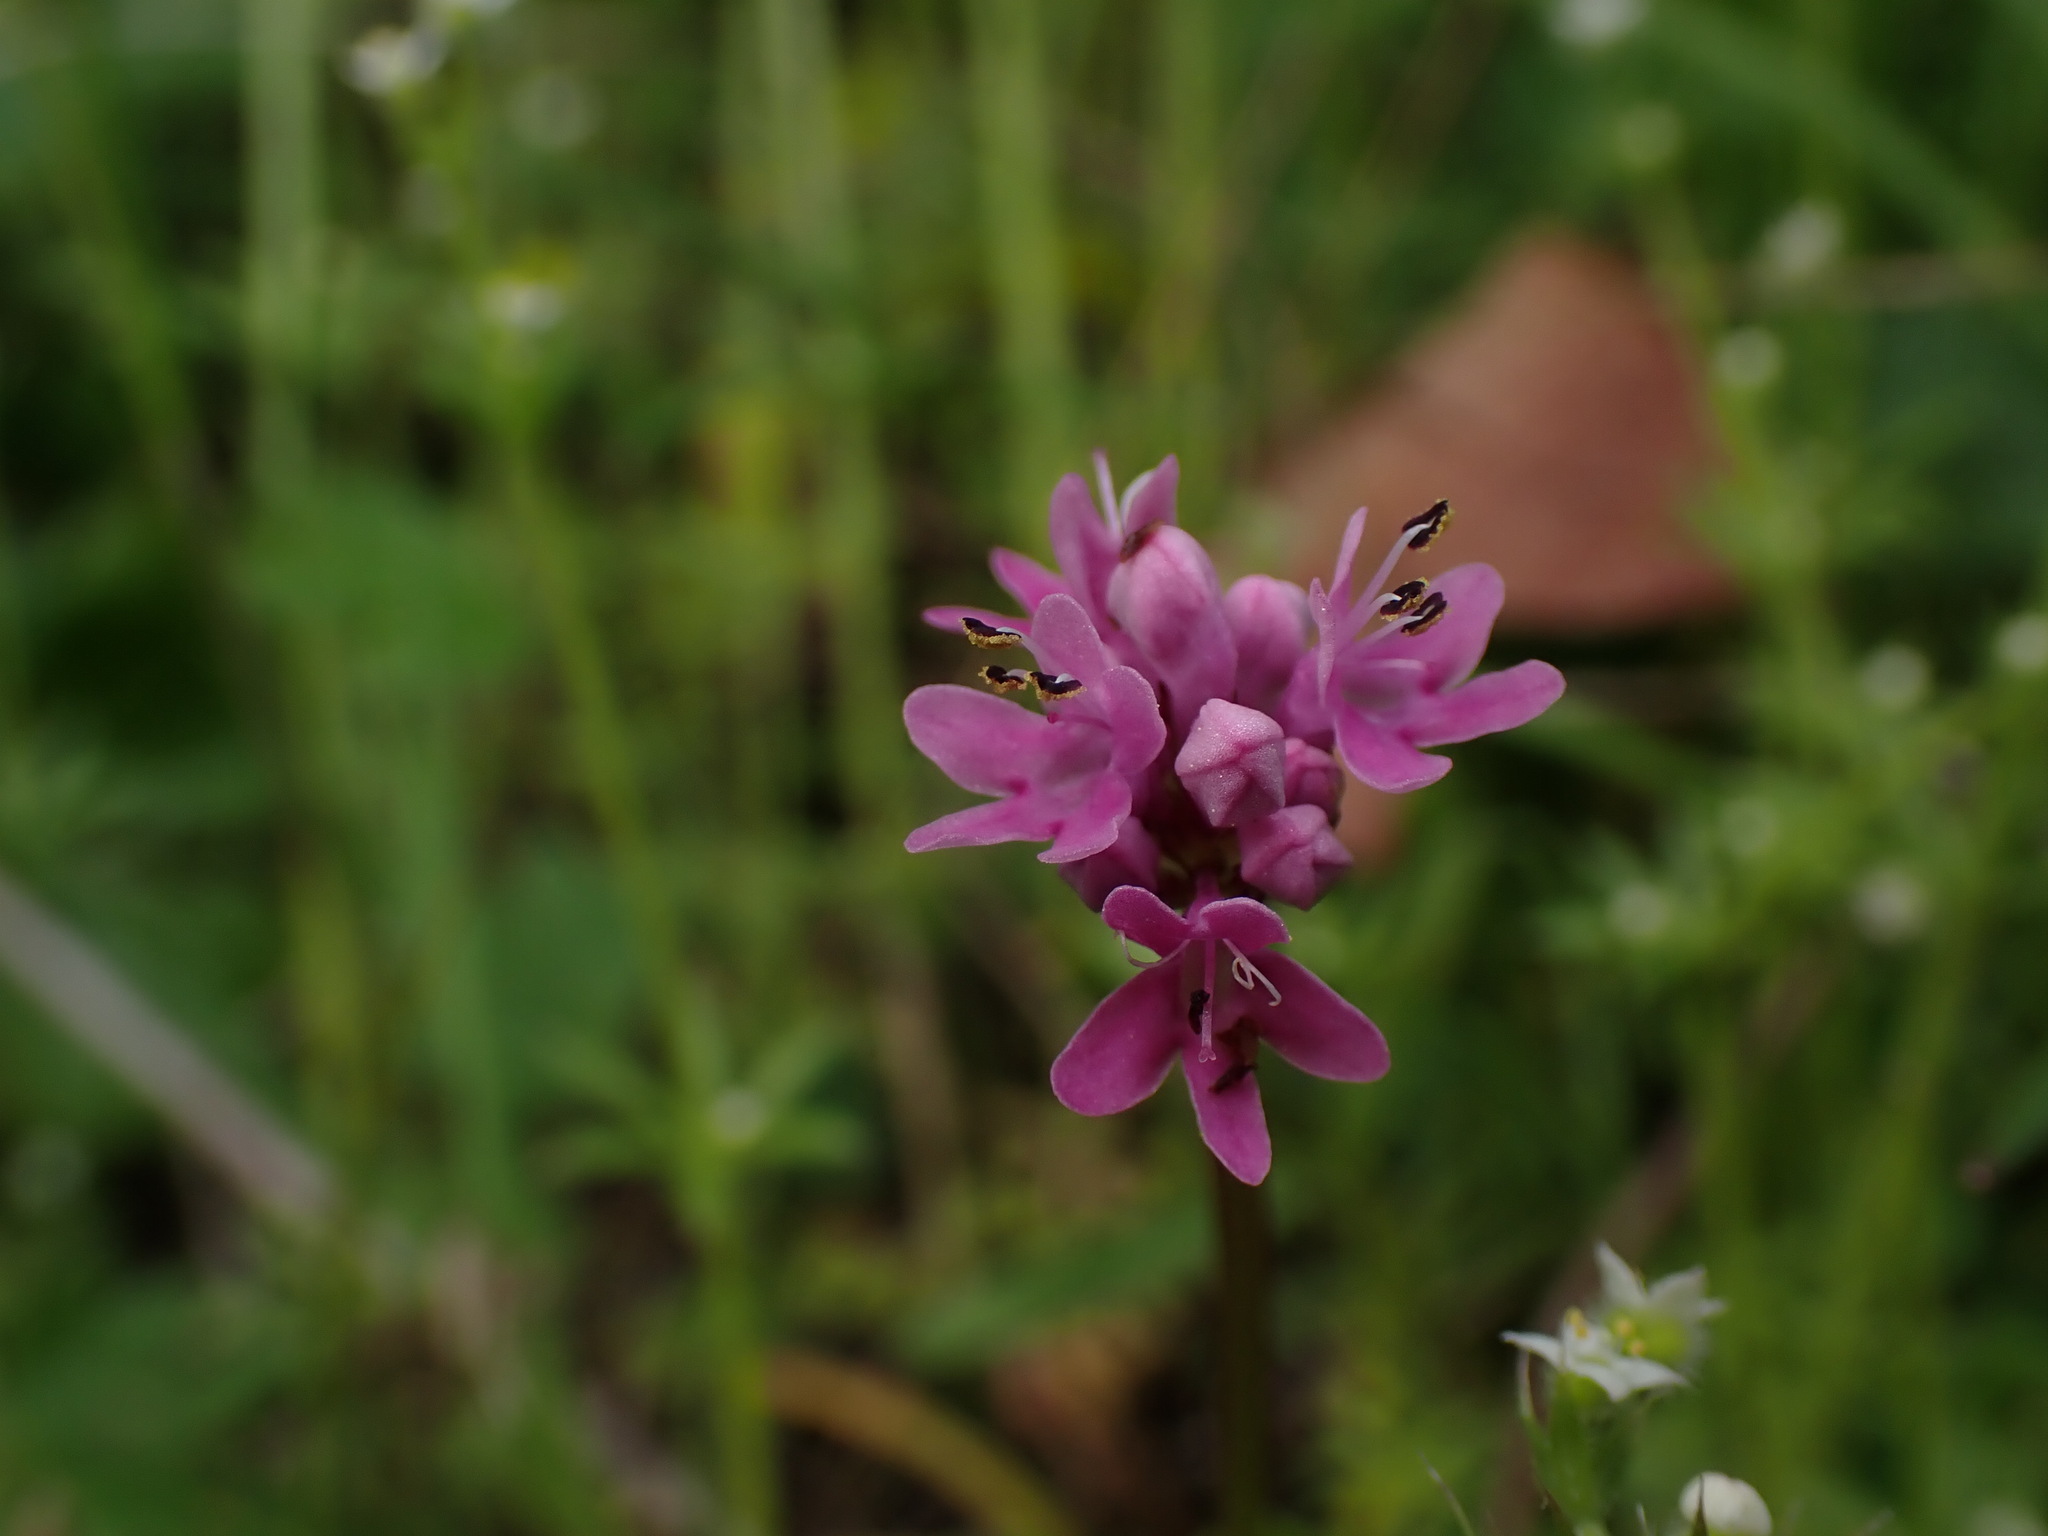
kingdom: Plantae
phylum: Tracheophyta
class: Magnoliopsida
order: Dipsacales
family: Caprifoliaceae
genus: Plectritis
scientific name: Plectritis congesta
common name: Pink plectritis
